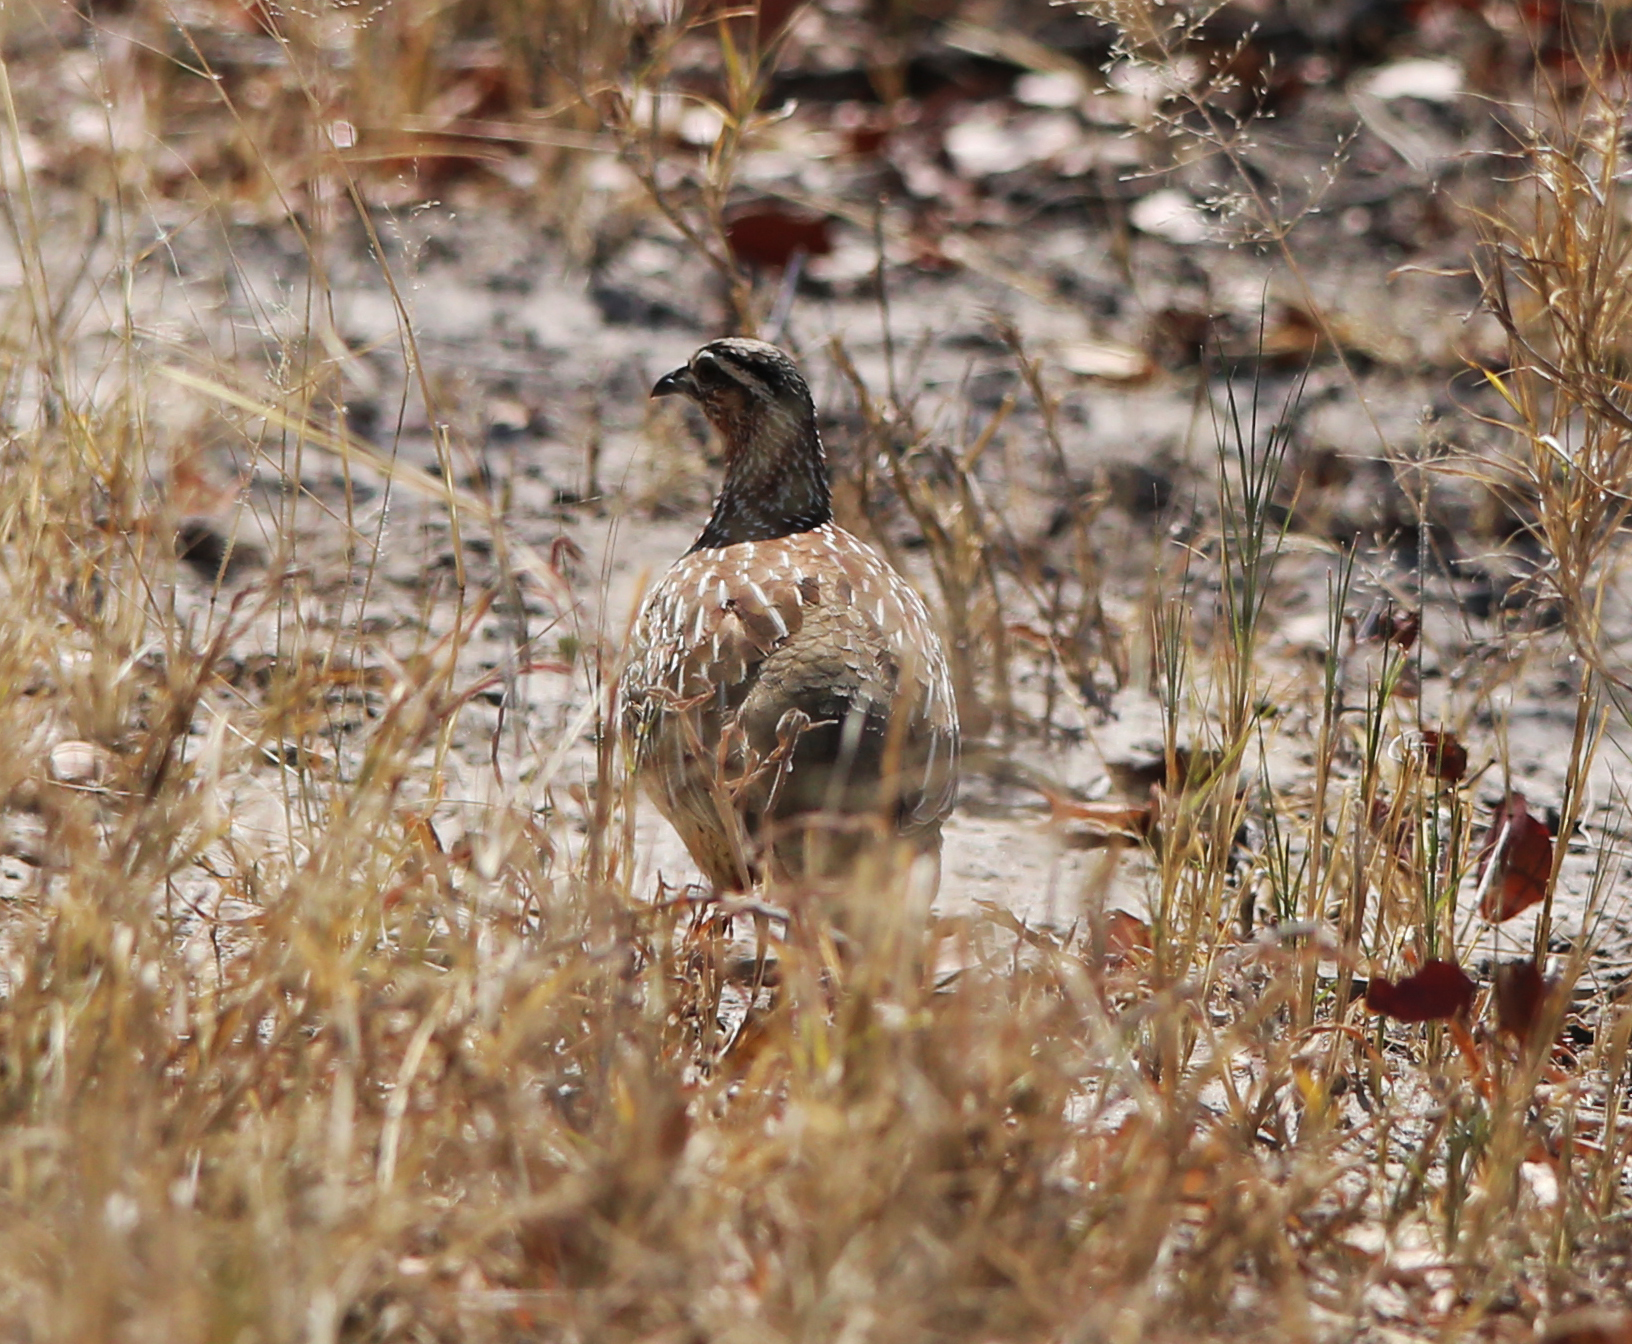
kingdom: Animalia
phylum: Chordata
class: Aves
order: Galliformes
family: Phasianidae
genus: Ortygornis
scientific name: Ortygornis sephaena
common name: Crested francolin
